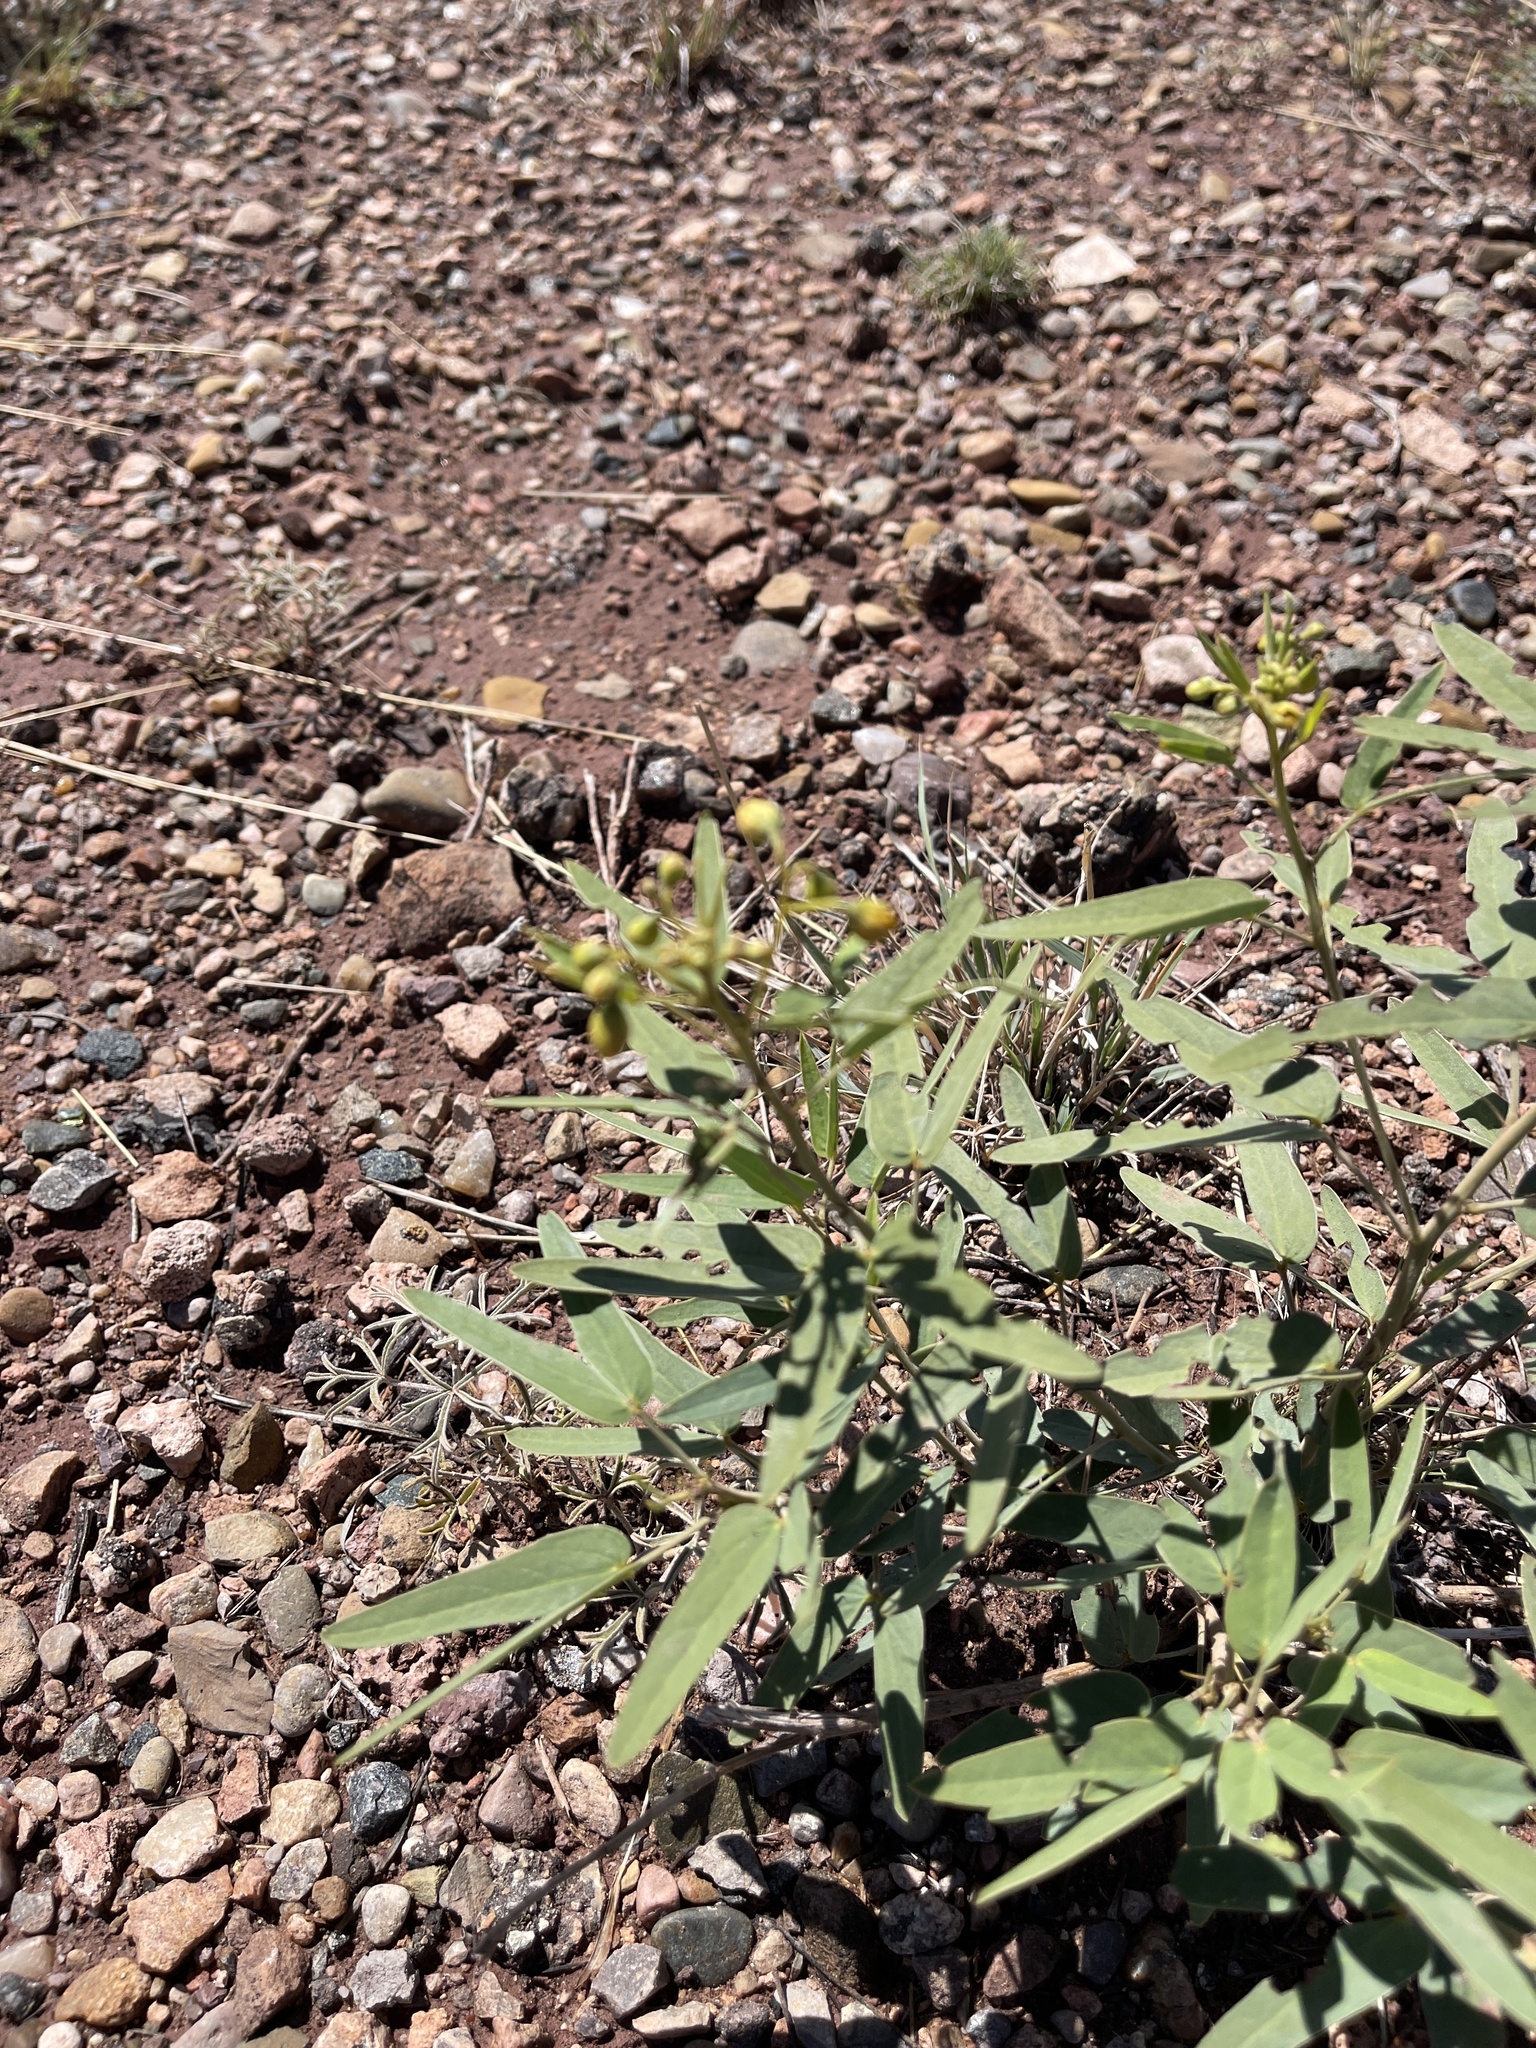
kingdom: Plantae
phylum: Tracheophyta
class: Magnoliopsida
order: Fabales
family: Fabaceae
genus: Senna
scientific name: Senna roemeriana
